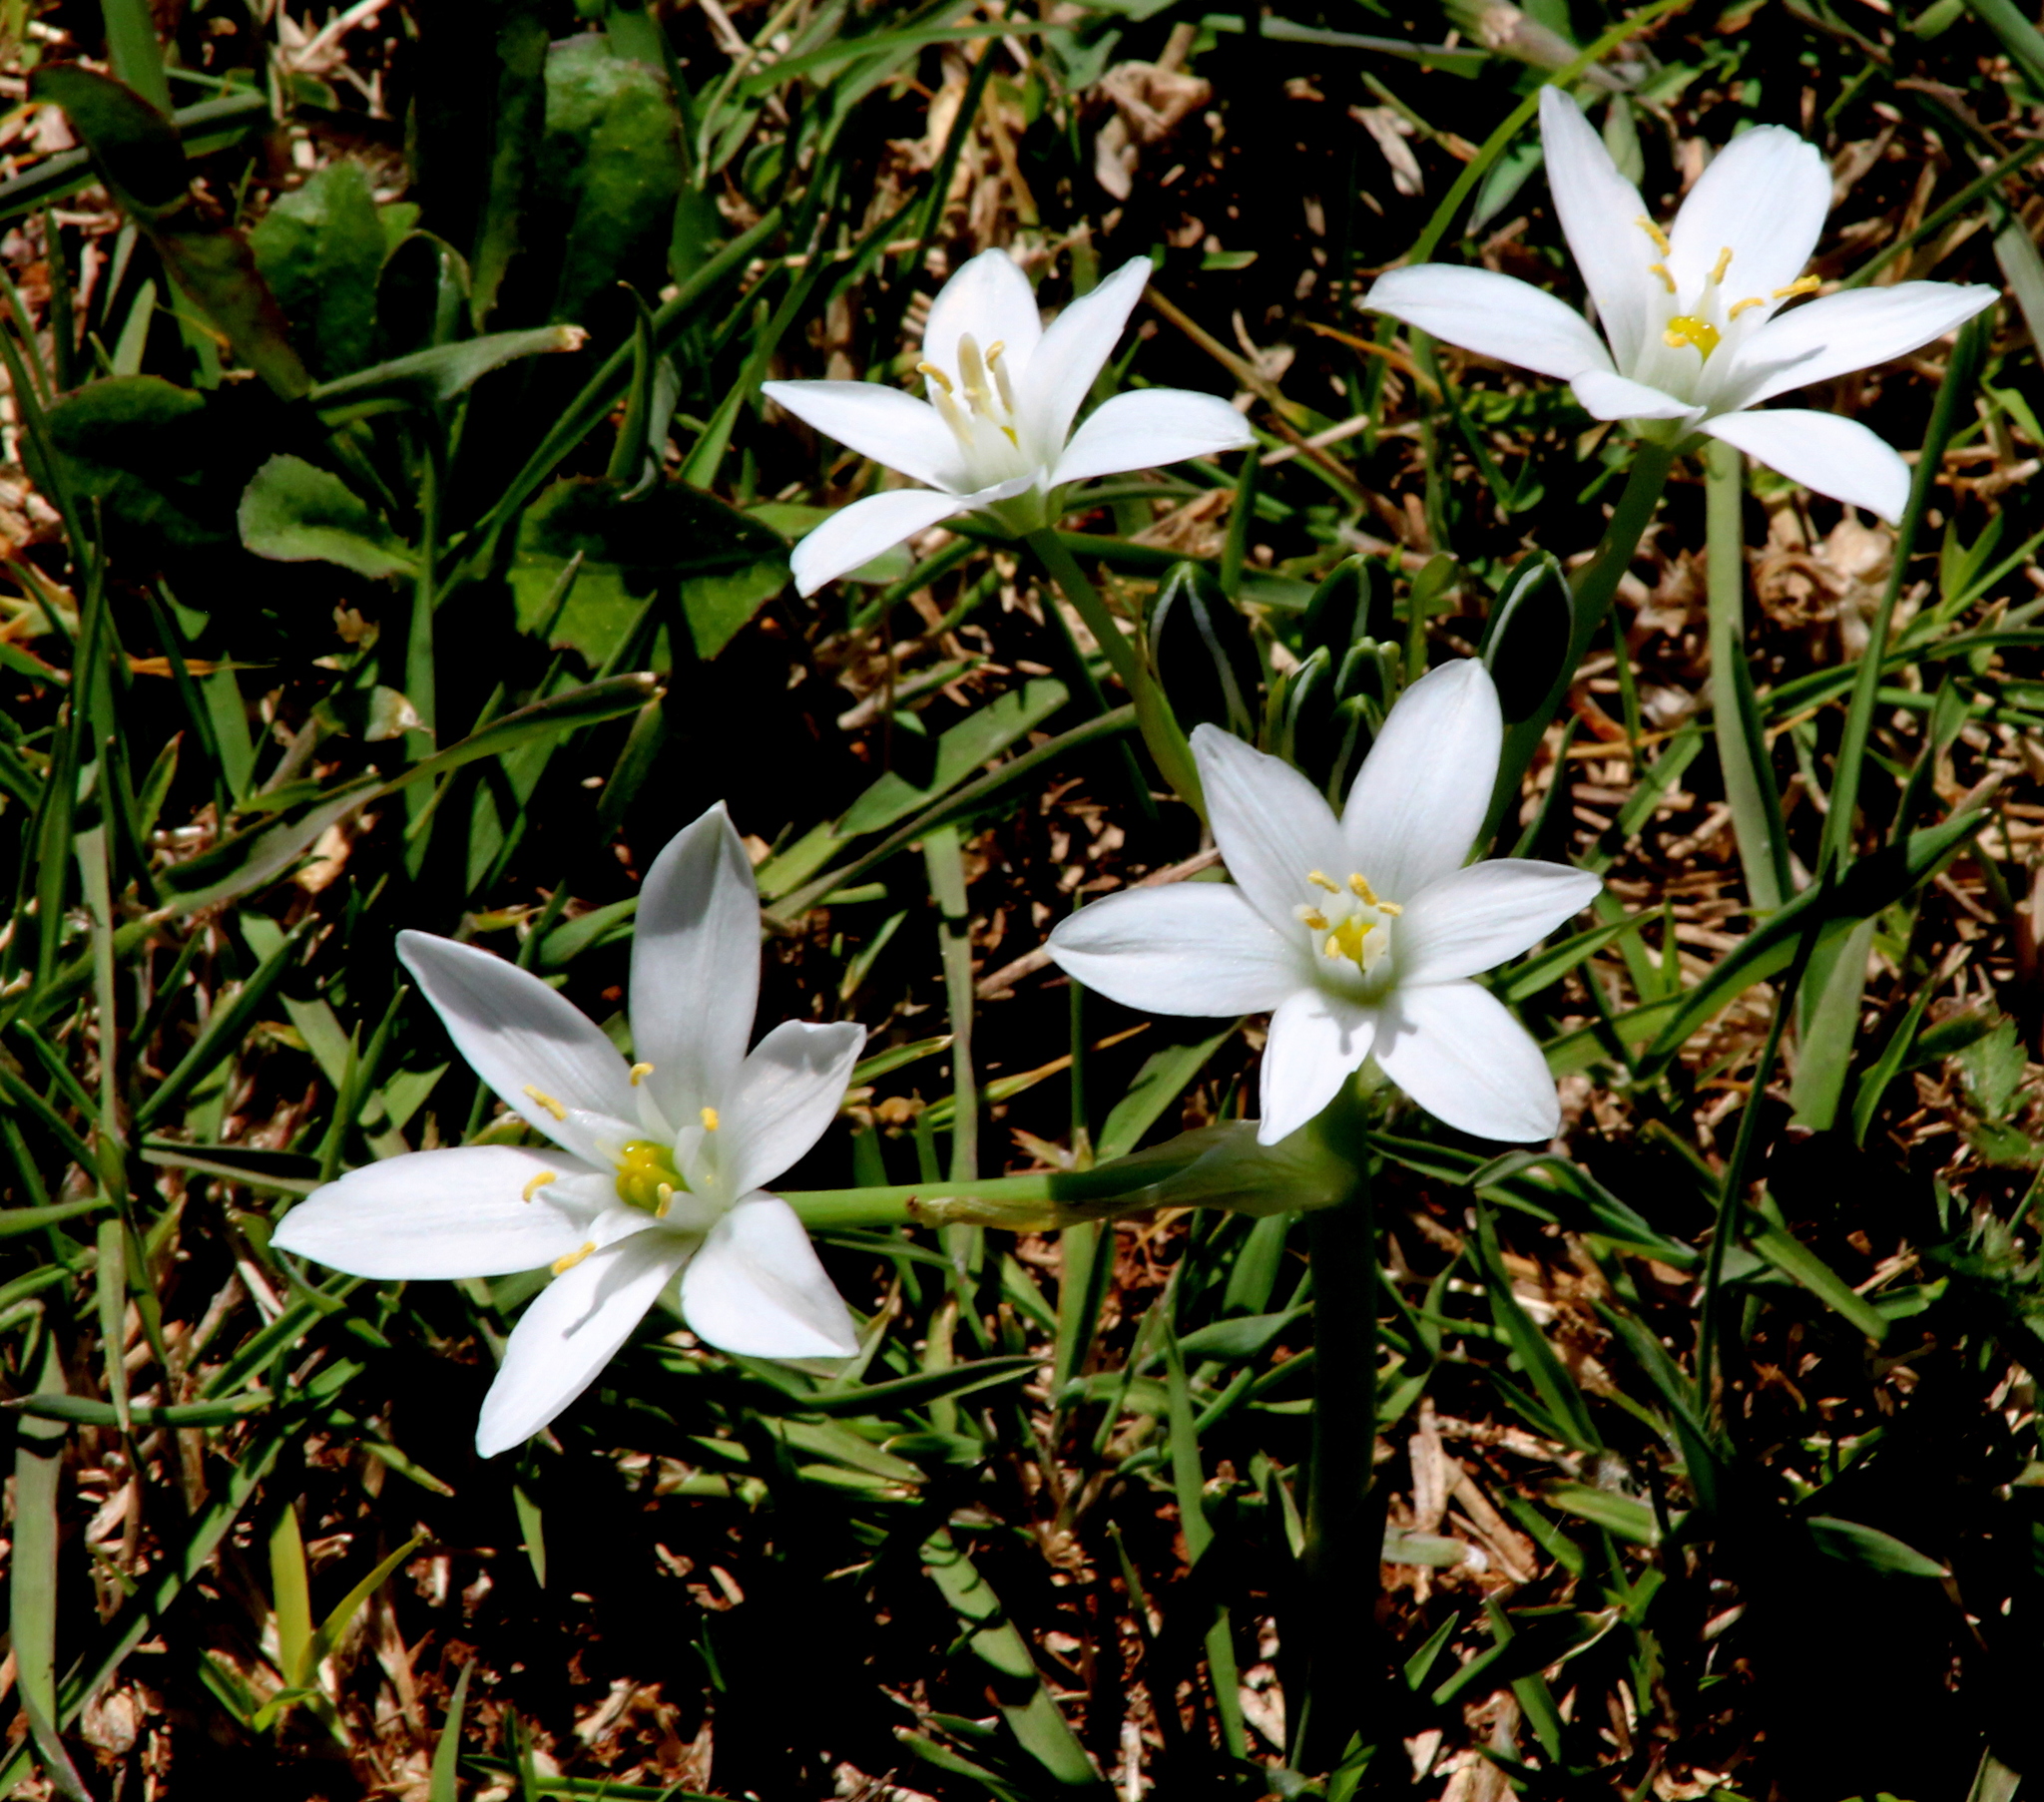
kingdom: Plantae
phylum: Tracheophyta
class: Liliopsida
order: Asparagales
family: Asparagaceae
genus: Ornithogalum
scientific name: Ornithogalum umbellatum
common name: Garden star-of-bethlehem
